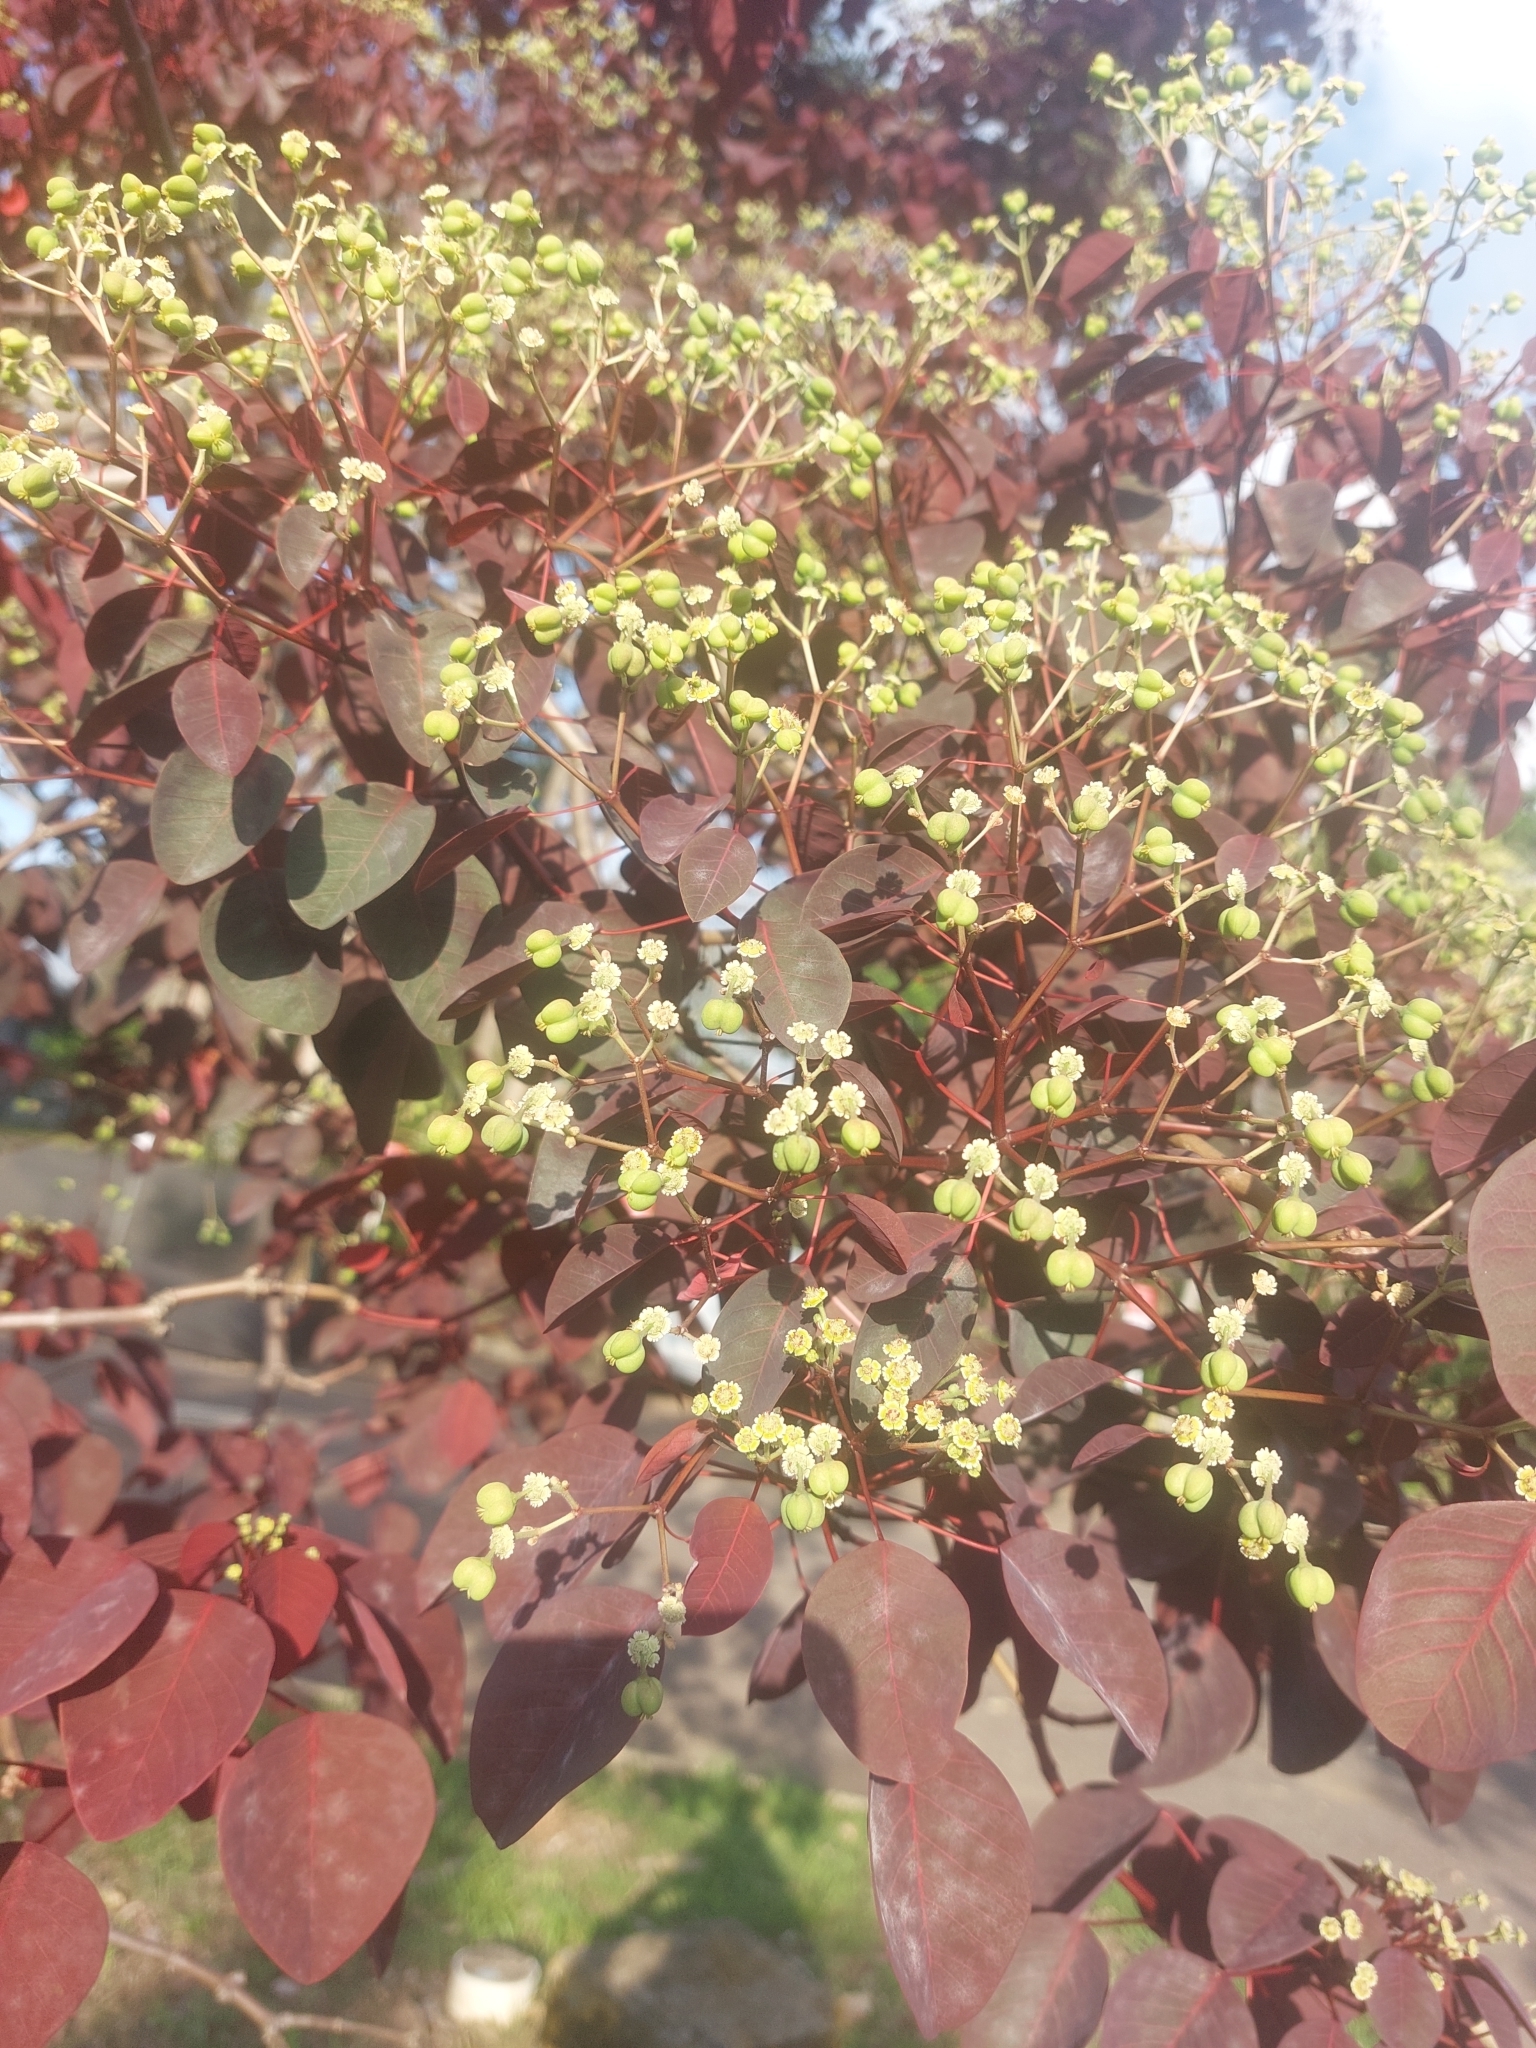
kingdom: Plantae
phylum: Tracheophyta
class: Magnoliopsida
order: Malpighiales
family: Euphorbiaceae
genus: Euphorbia
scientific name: Euphorbia cotinifolia
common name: Tropical smokebush
